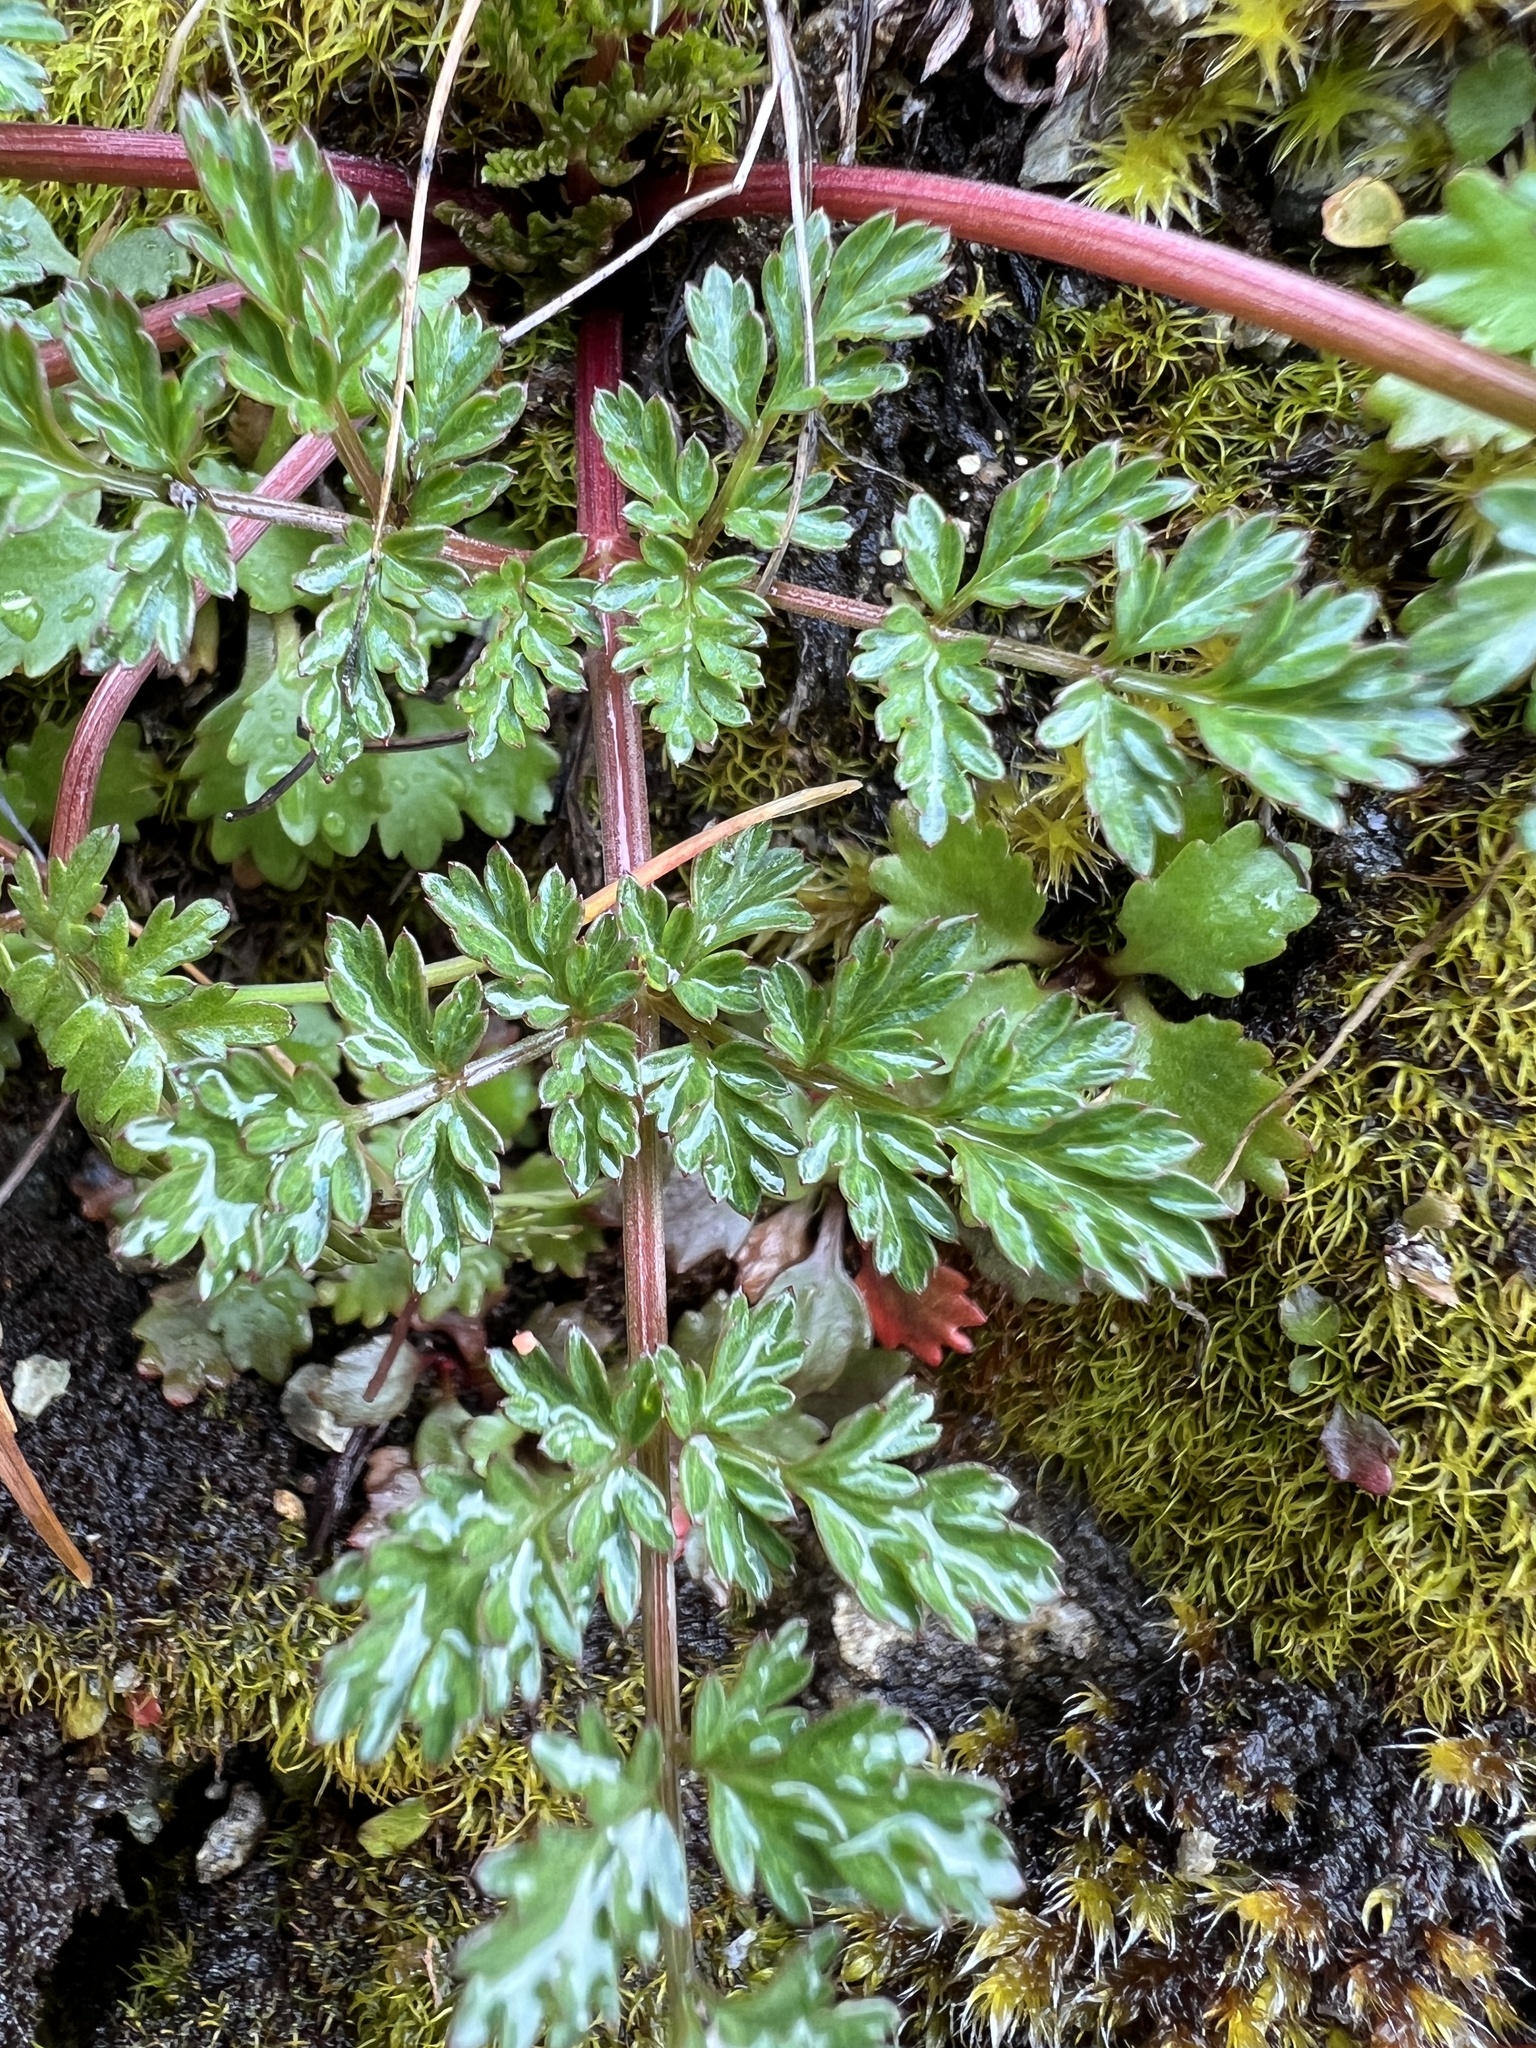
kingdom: Plantae
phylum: Tracheophyta
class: Magnoliopsida
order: Apiales
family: Apiaceae
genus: Lomatium
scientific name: Lomatium hallii
